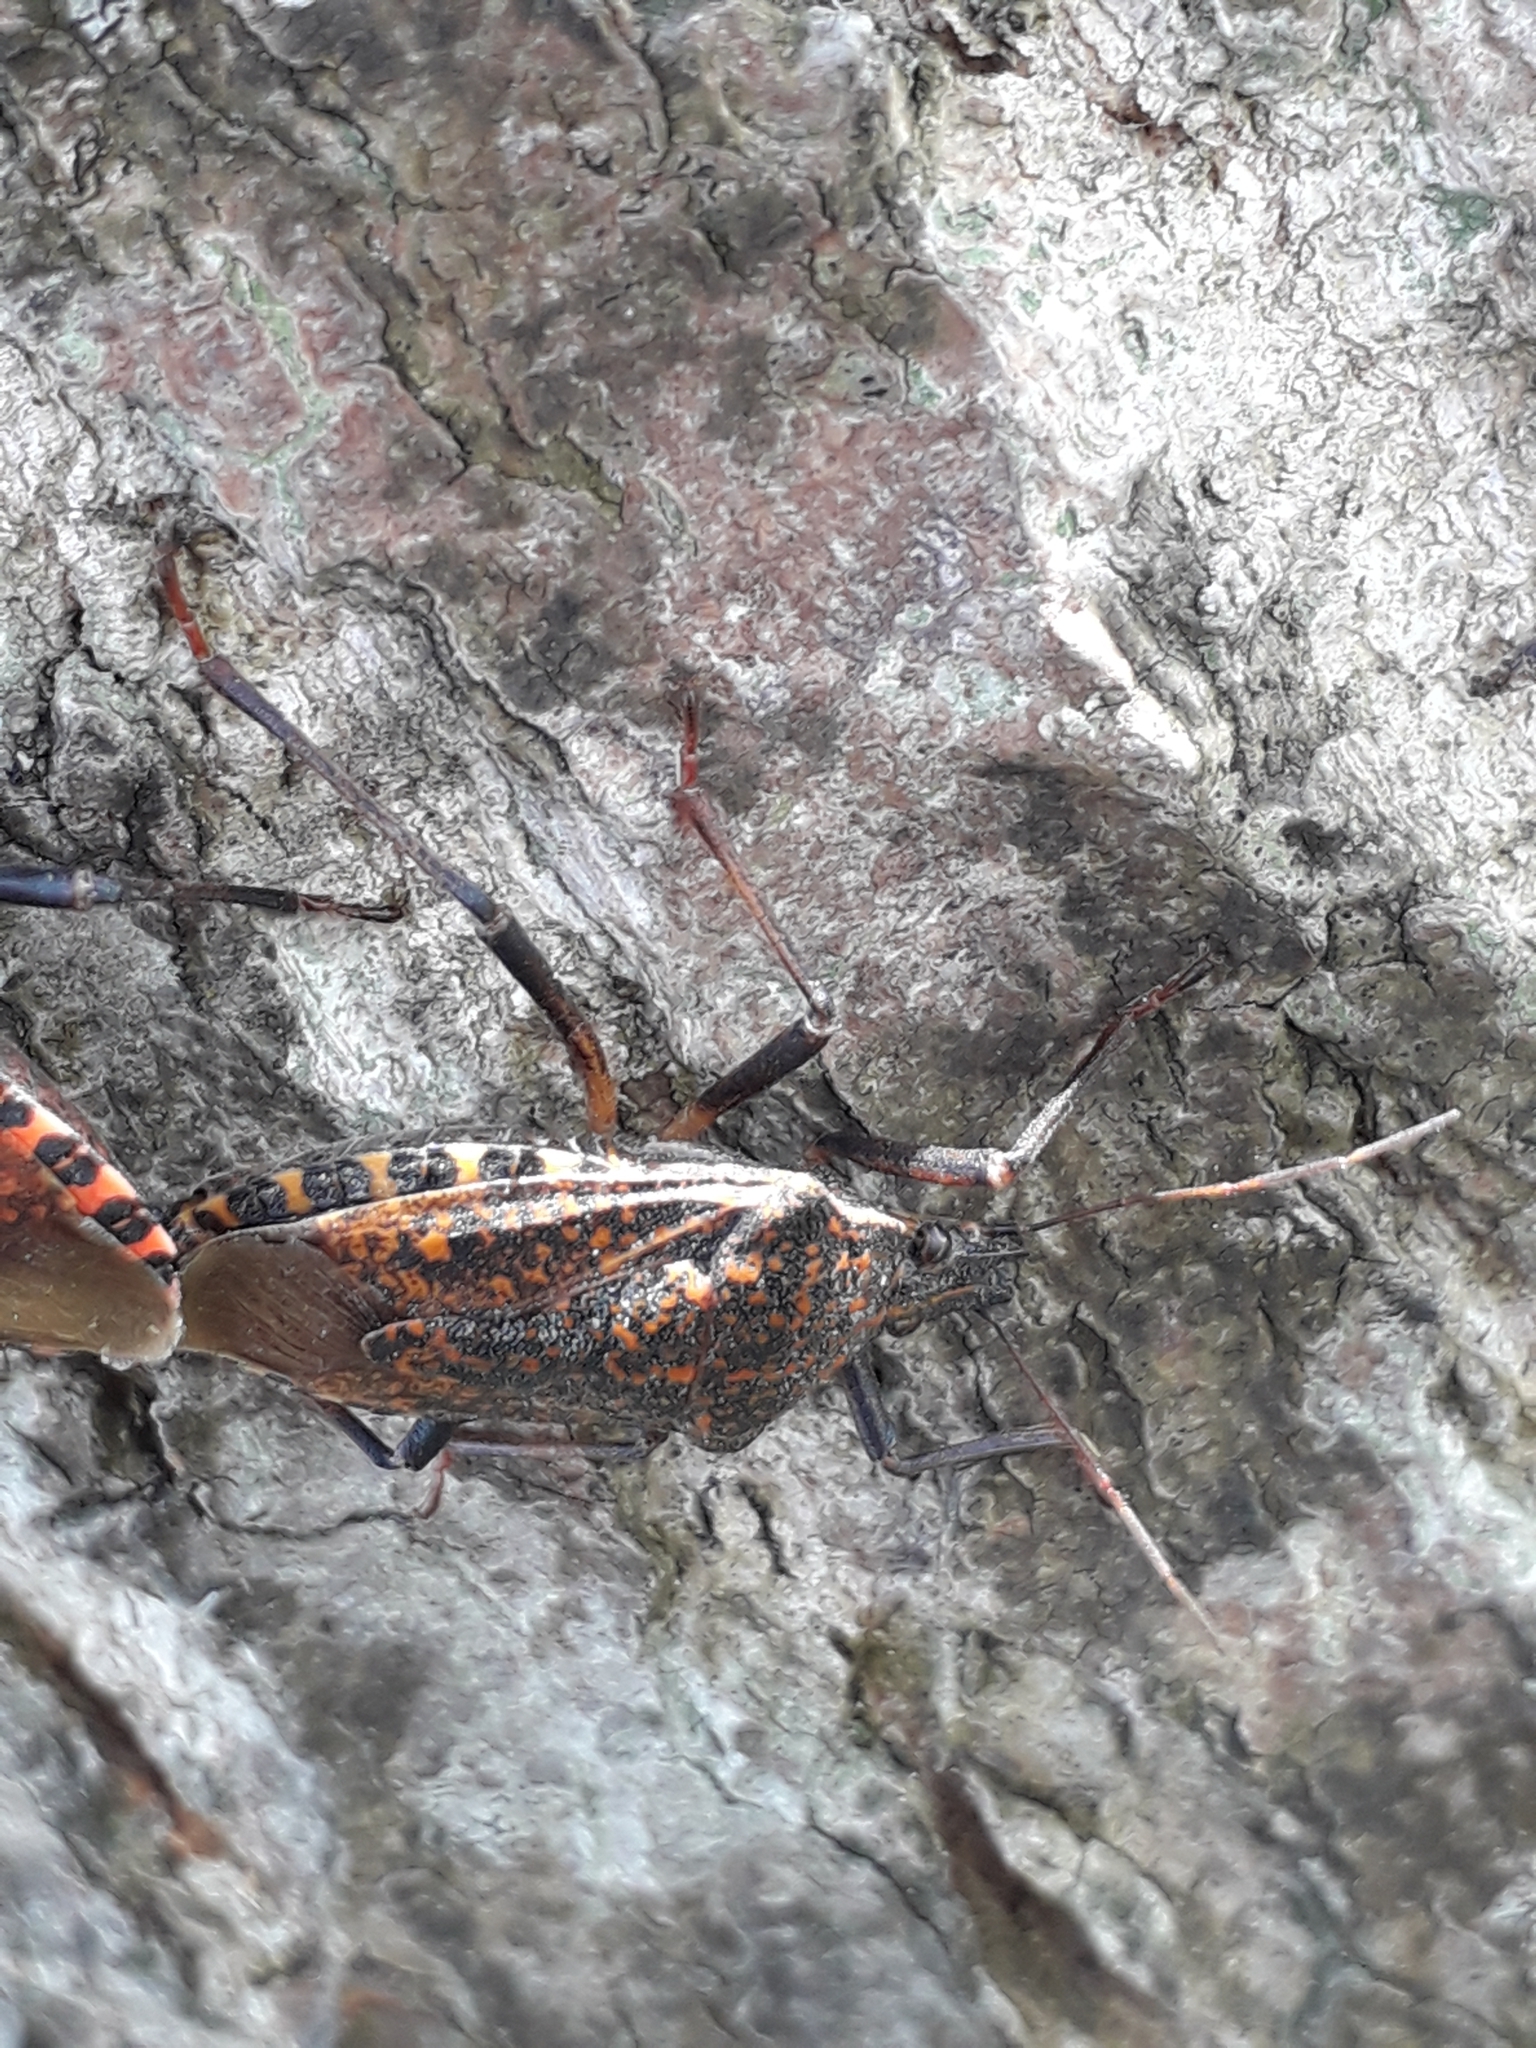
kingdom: Animalia
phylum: Arthropoda
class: Insecta
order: Hemiptera
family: Pentatomidae
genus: Apodiphus
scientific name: Apodiphus amygdali
